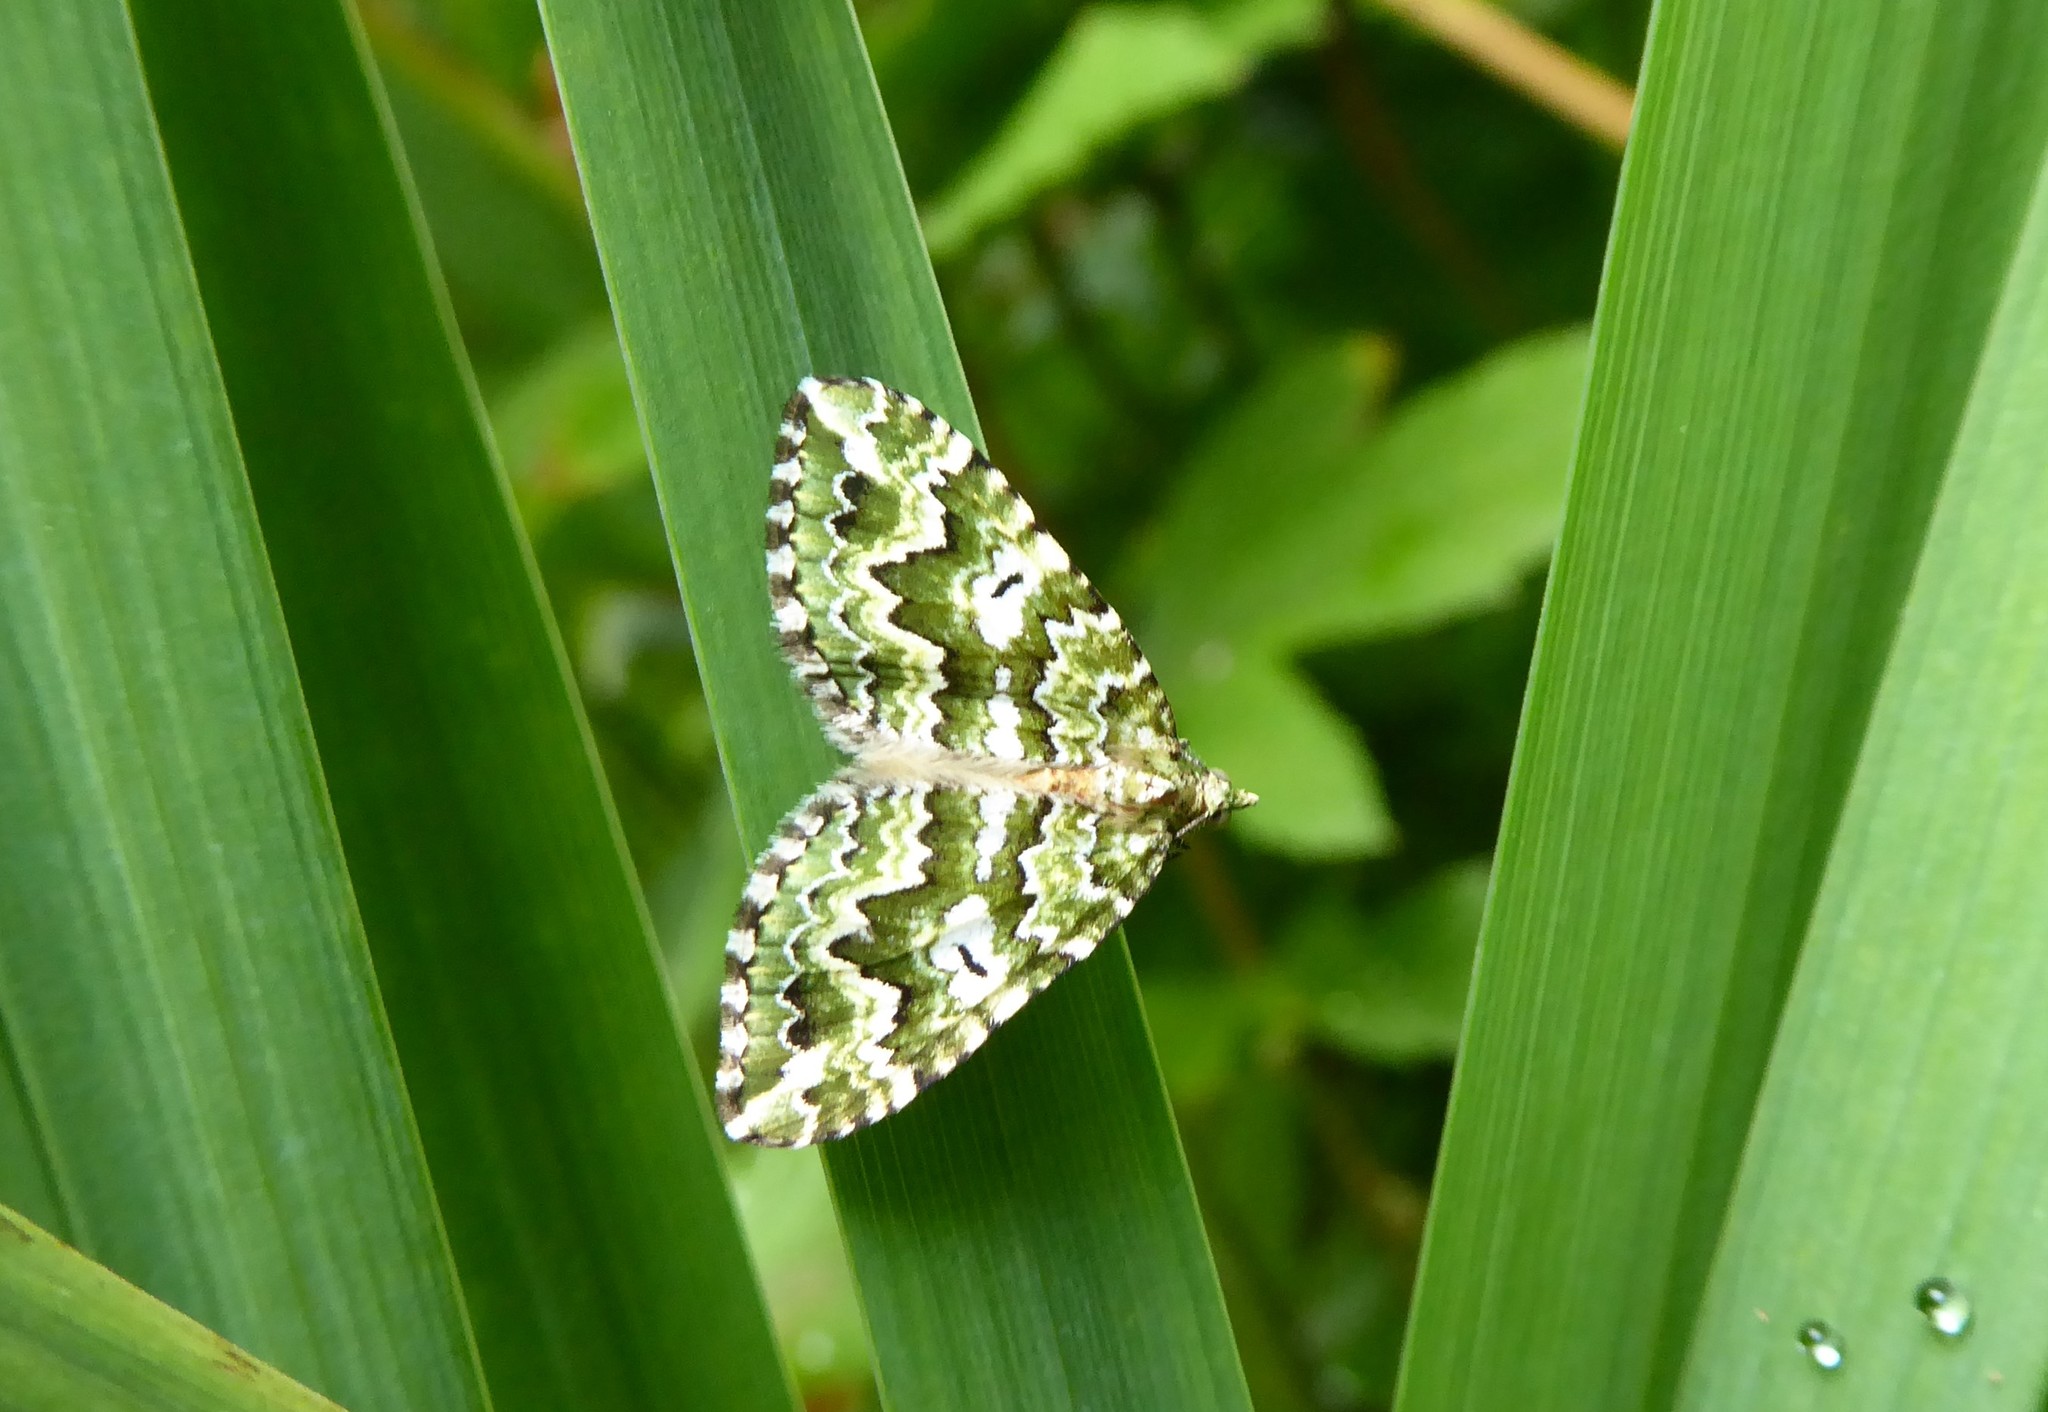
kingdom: Animalia
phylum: Arthropoda
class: Insecta
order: Lepidoptera
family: Geometridae
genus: Asaphodes
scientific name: Asaphodes beata
